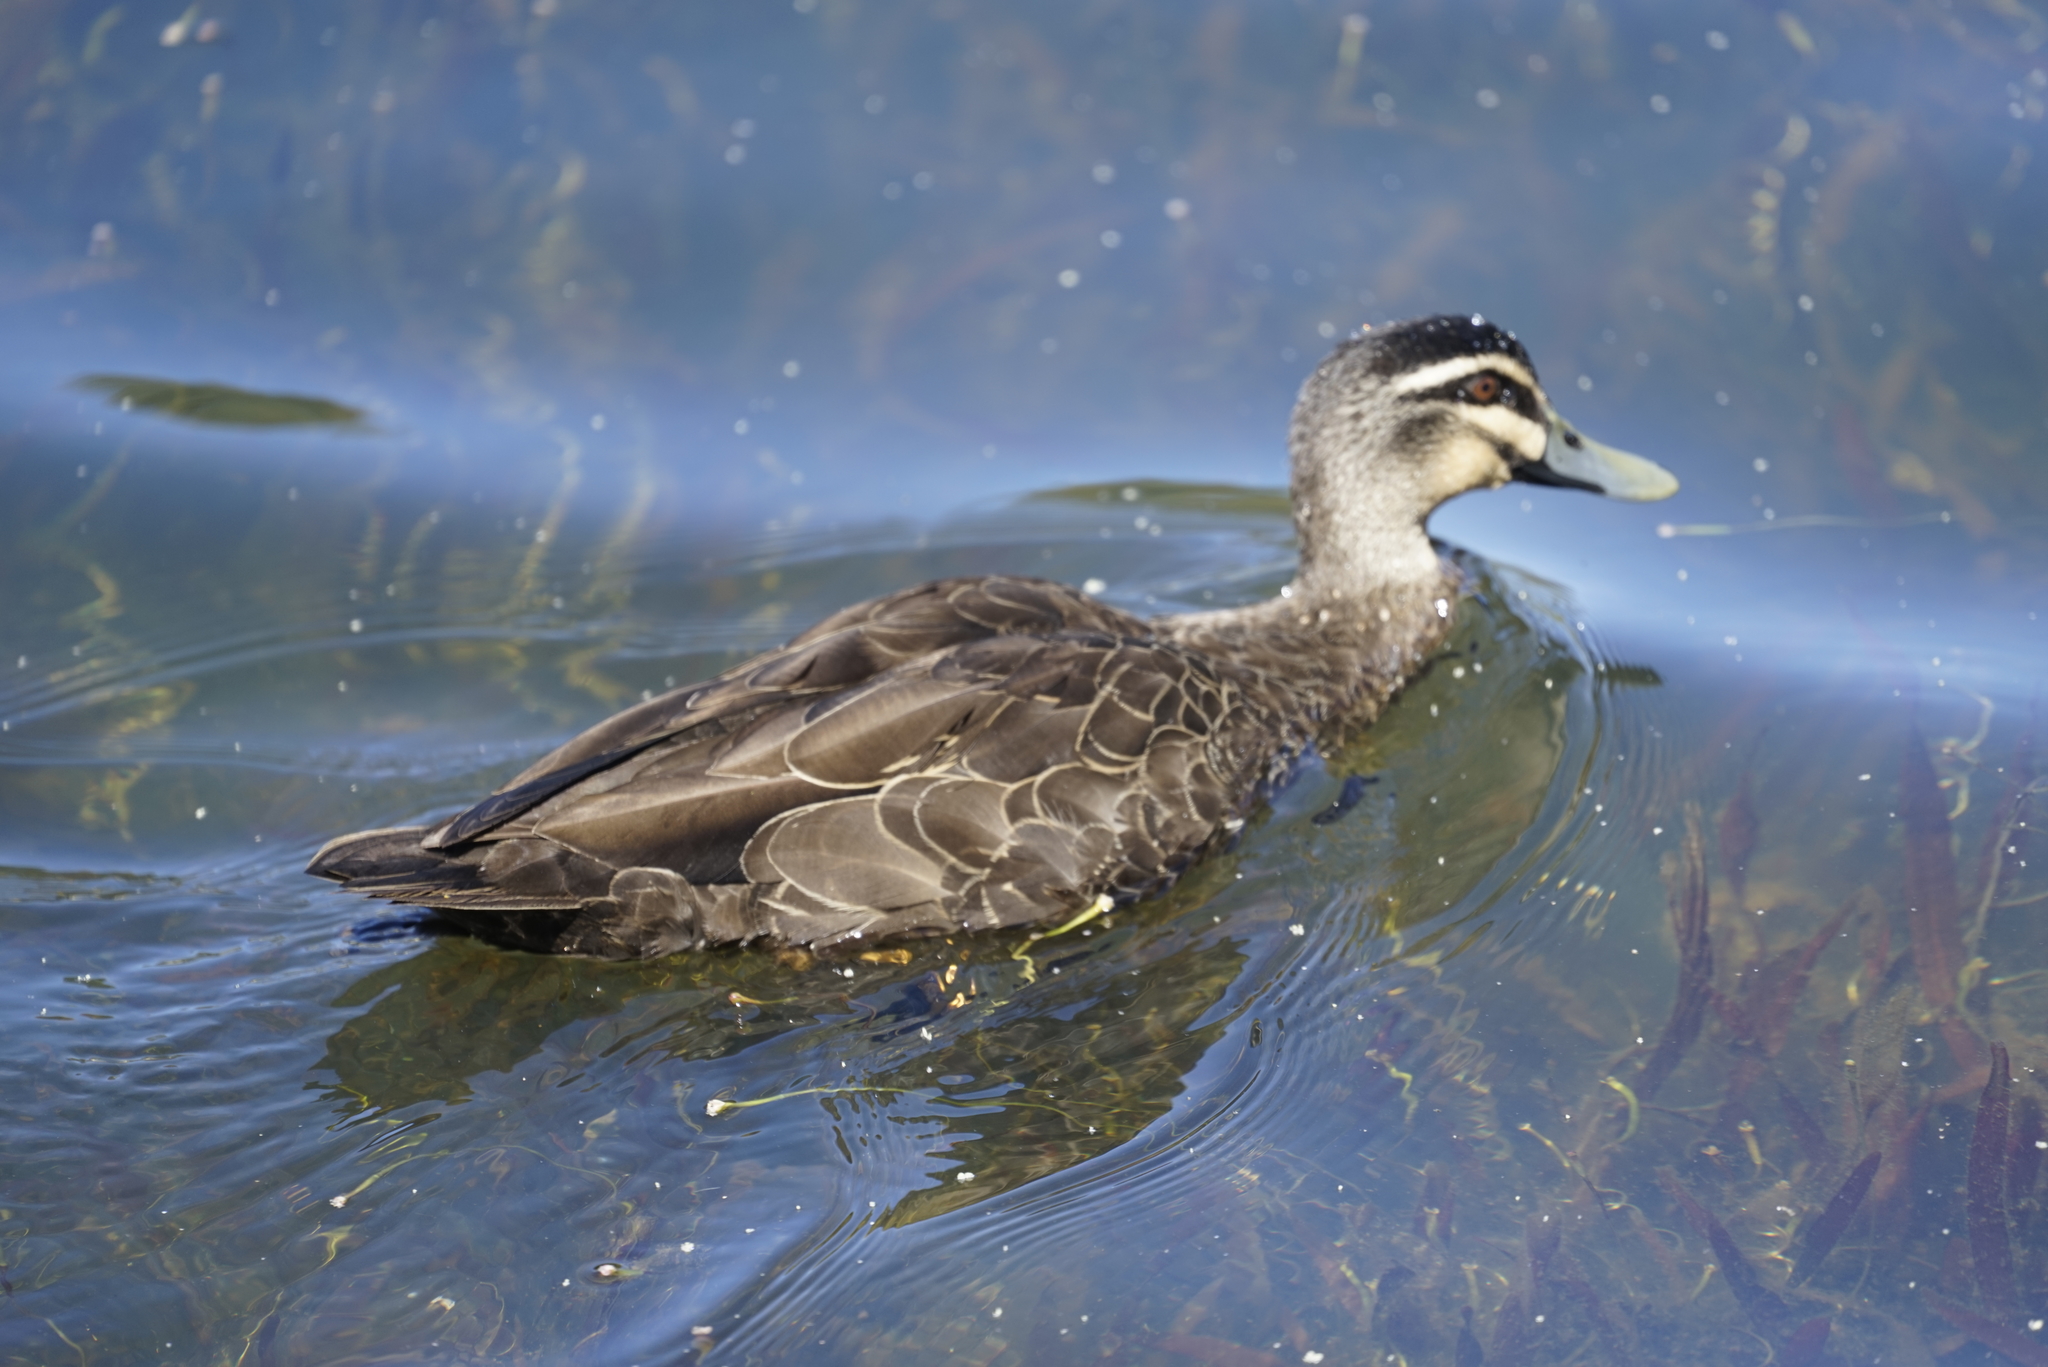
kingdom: Animalia
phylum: Chordata
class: Aves
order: Anseriformes
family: Anatidae
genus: Anas
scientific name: Anas superciliosa
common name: Pacific black duck
